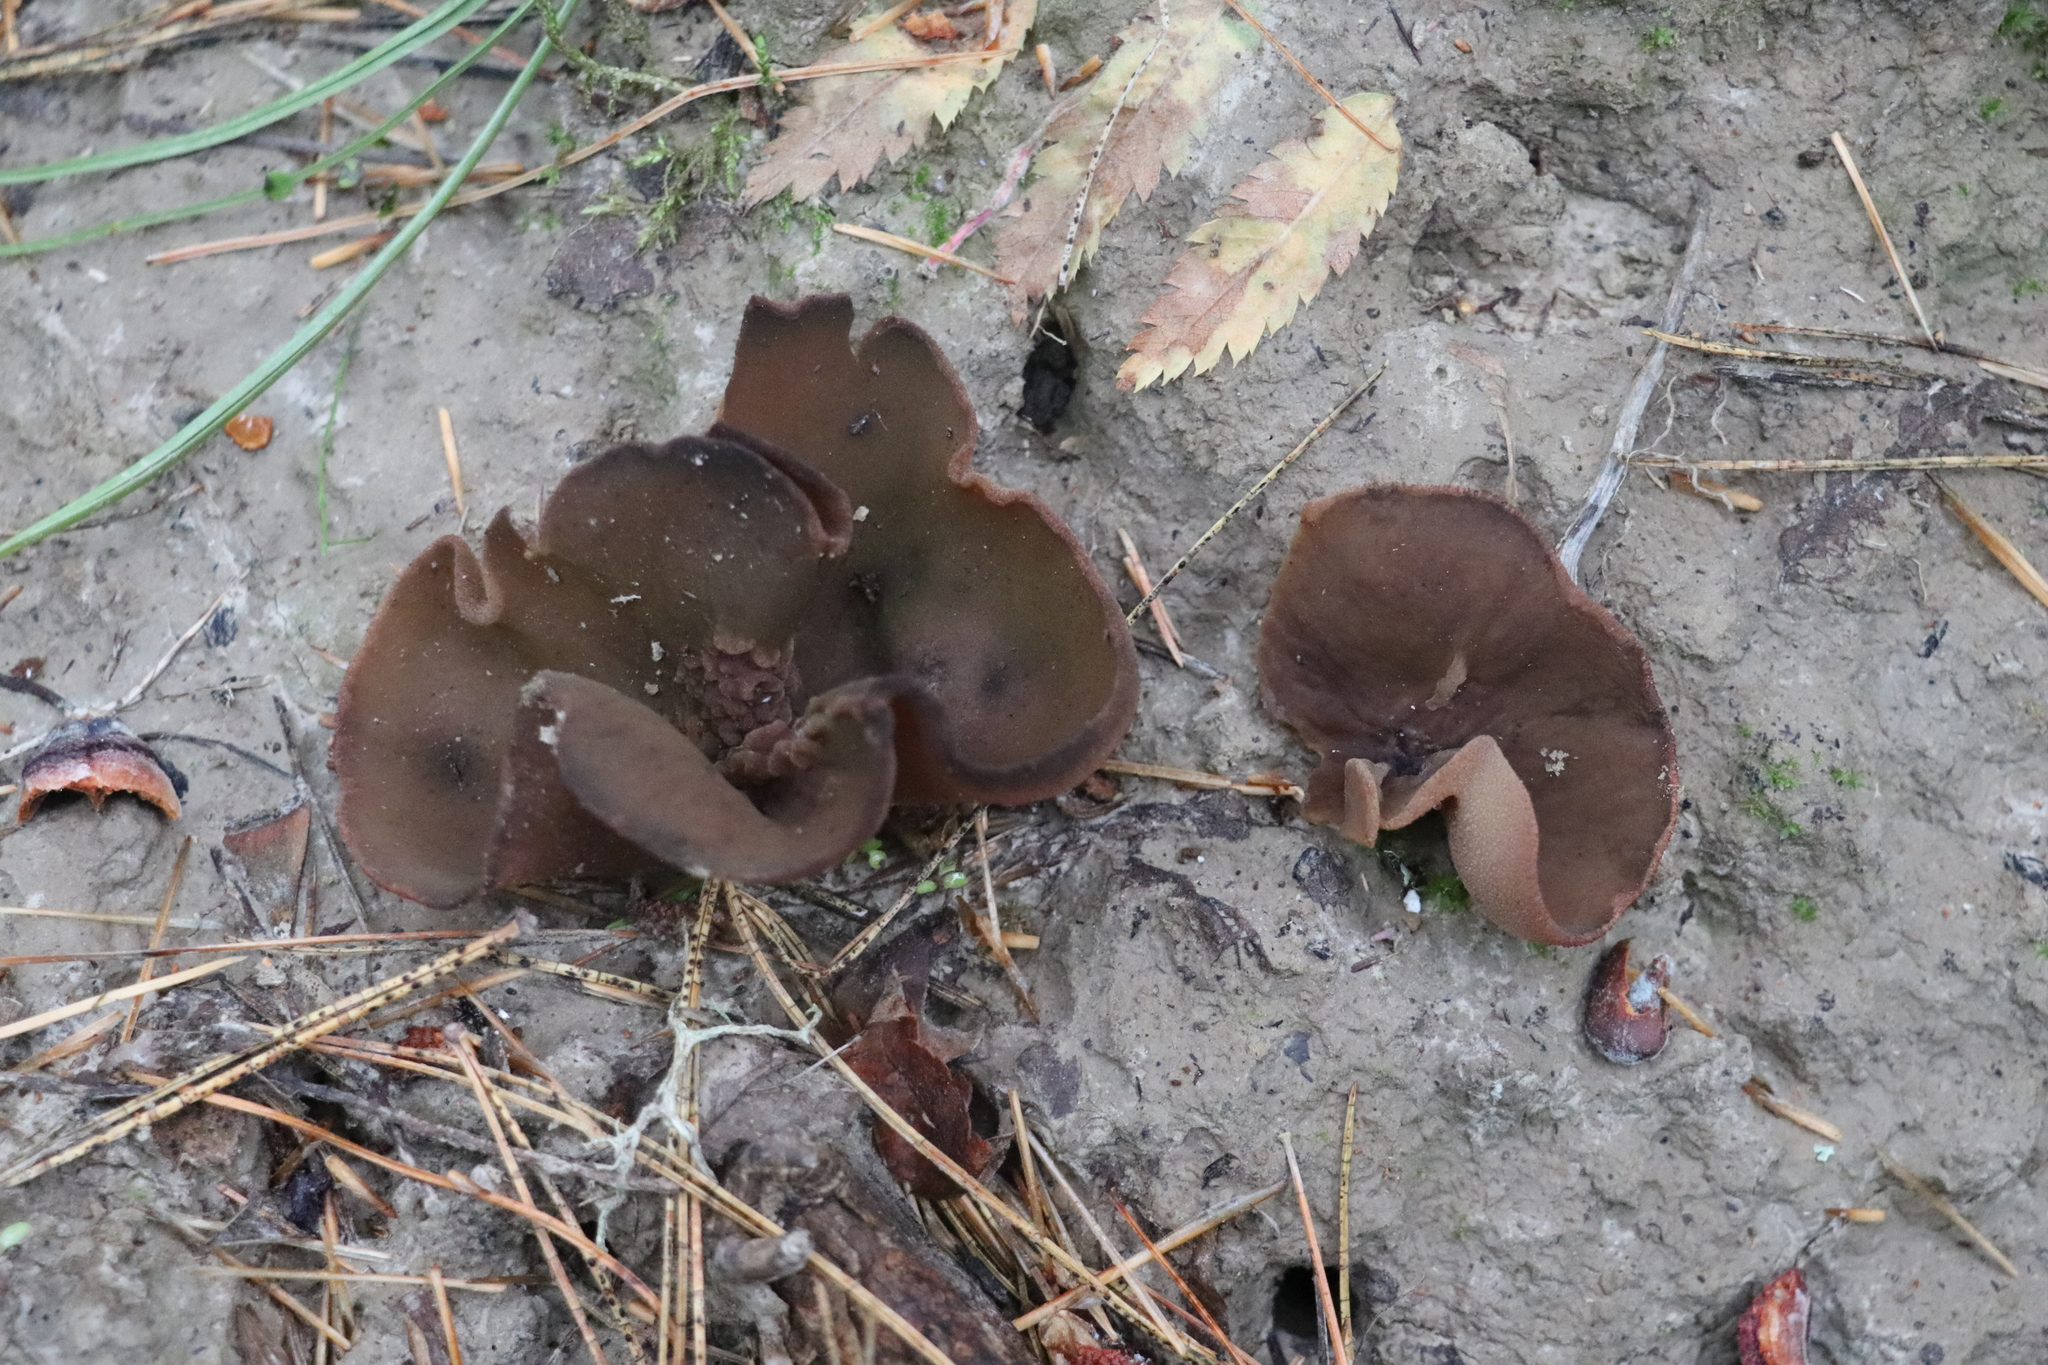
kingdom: Fungi
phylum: Ascomycota
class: Pezizomycetes
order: Pezizales
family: Pezizaceae
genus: Legaliana
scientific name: Legaliana badia
